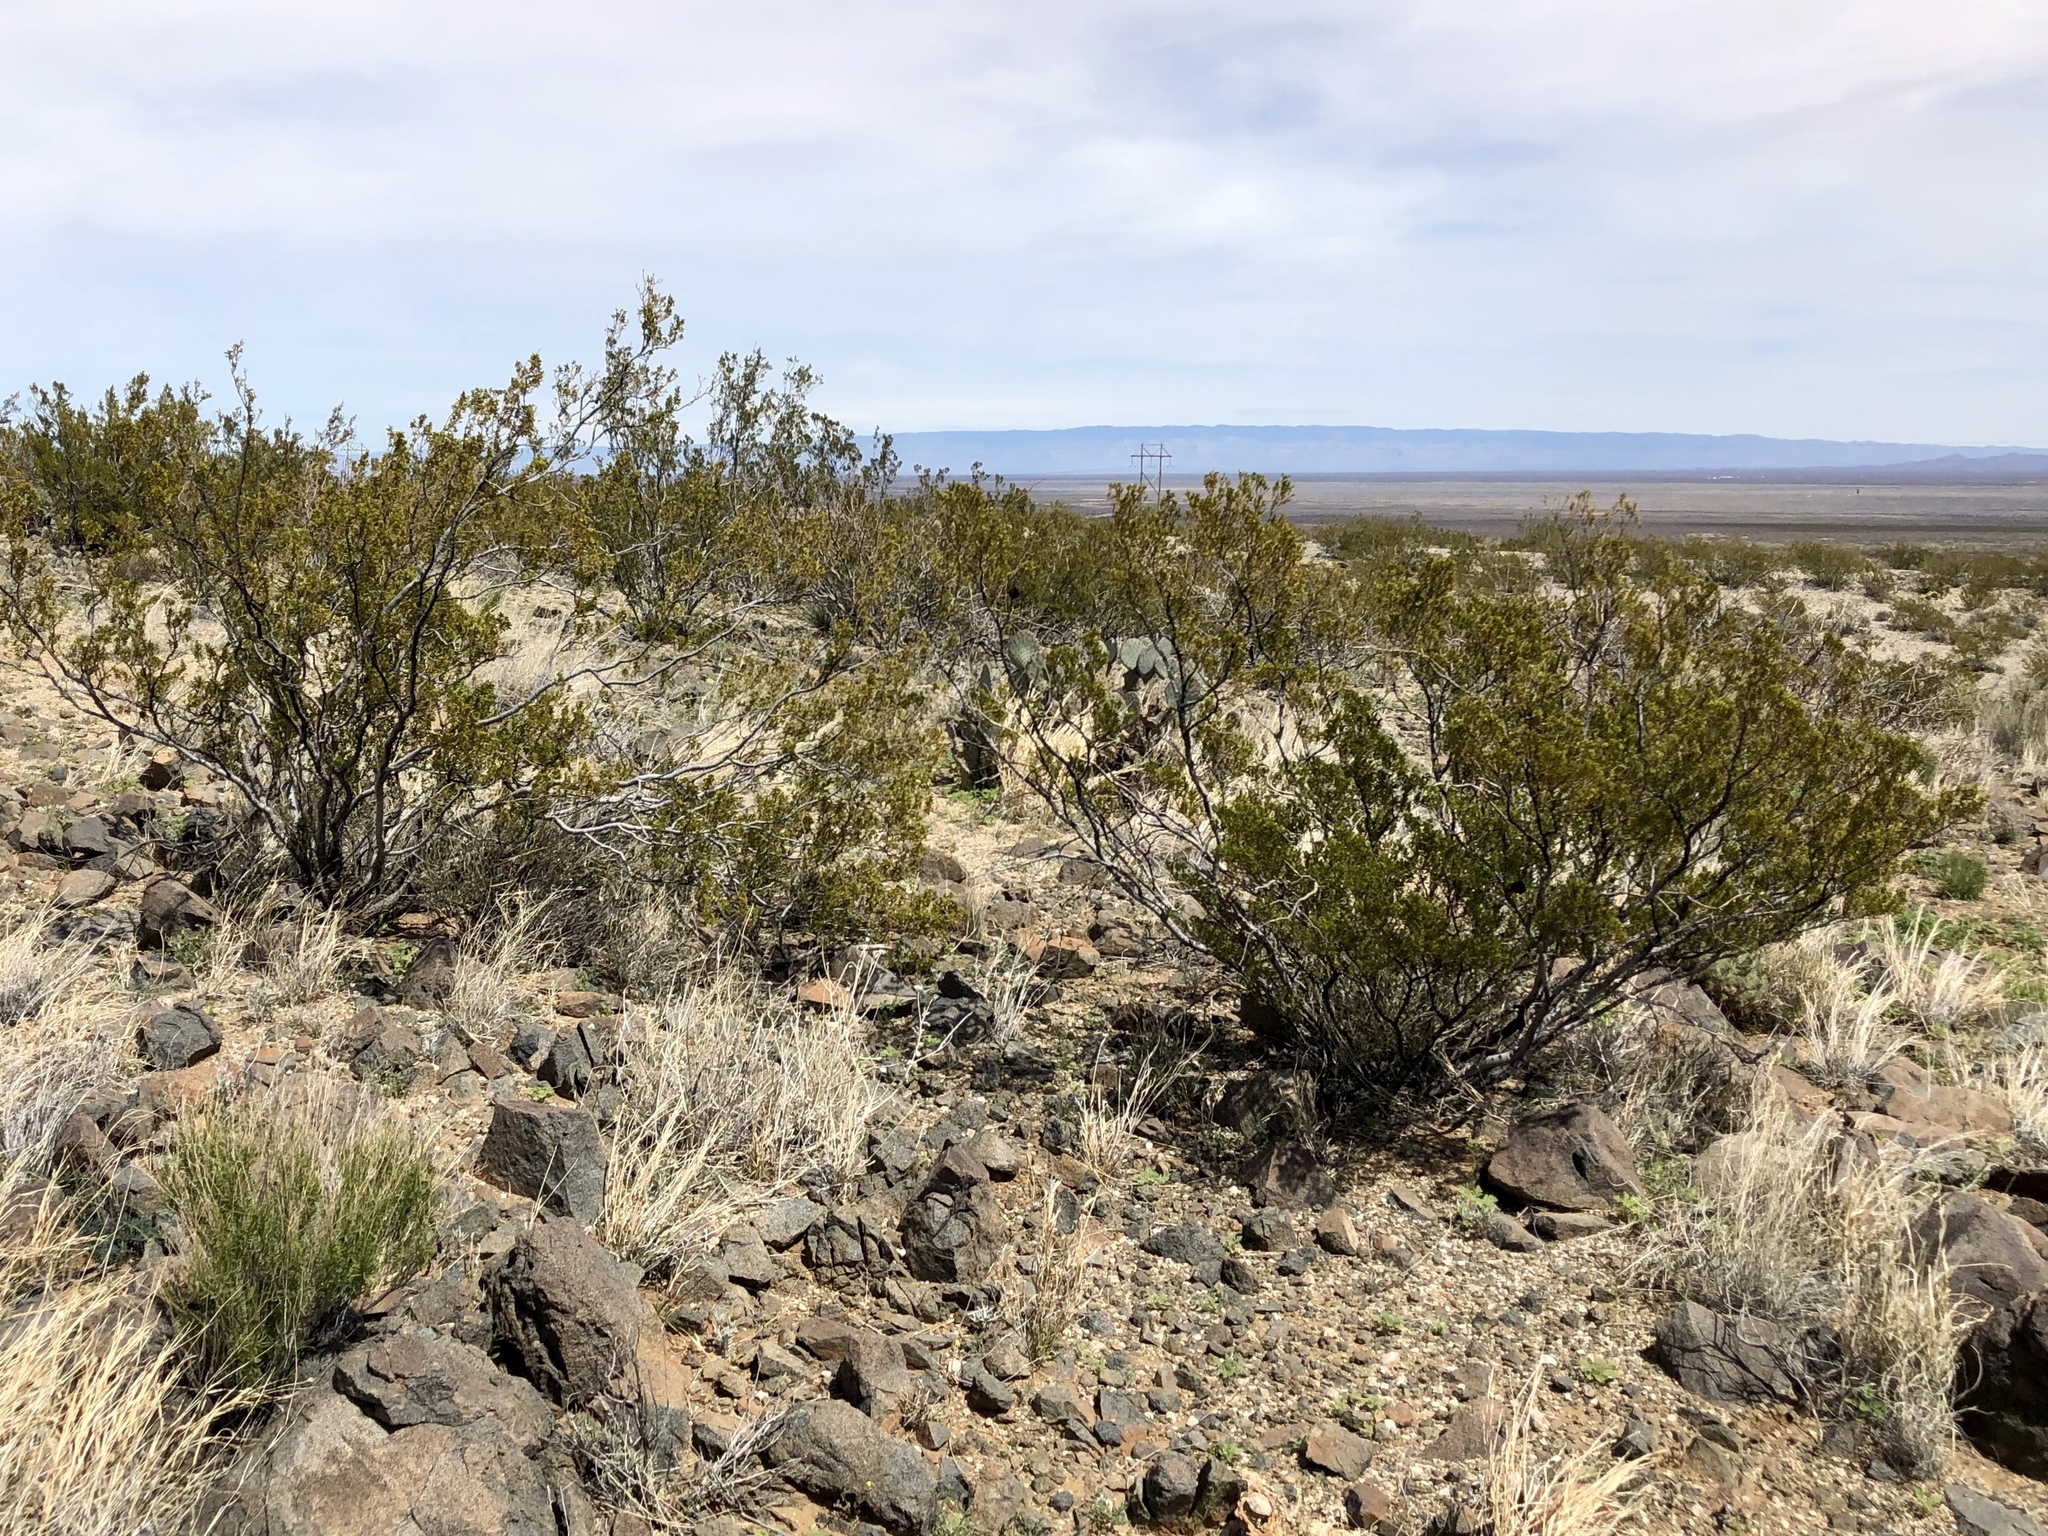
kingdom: Plantae
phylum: Tracheophyta
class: Magnoliopsida
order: Zygophyllales
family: Zygophyllaceae
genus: Larrea
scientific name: Larrea tridentata
